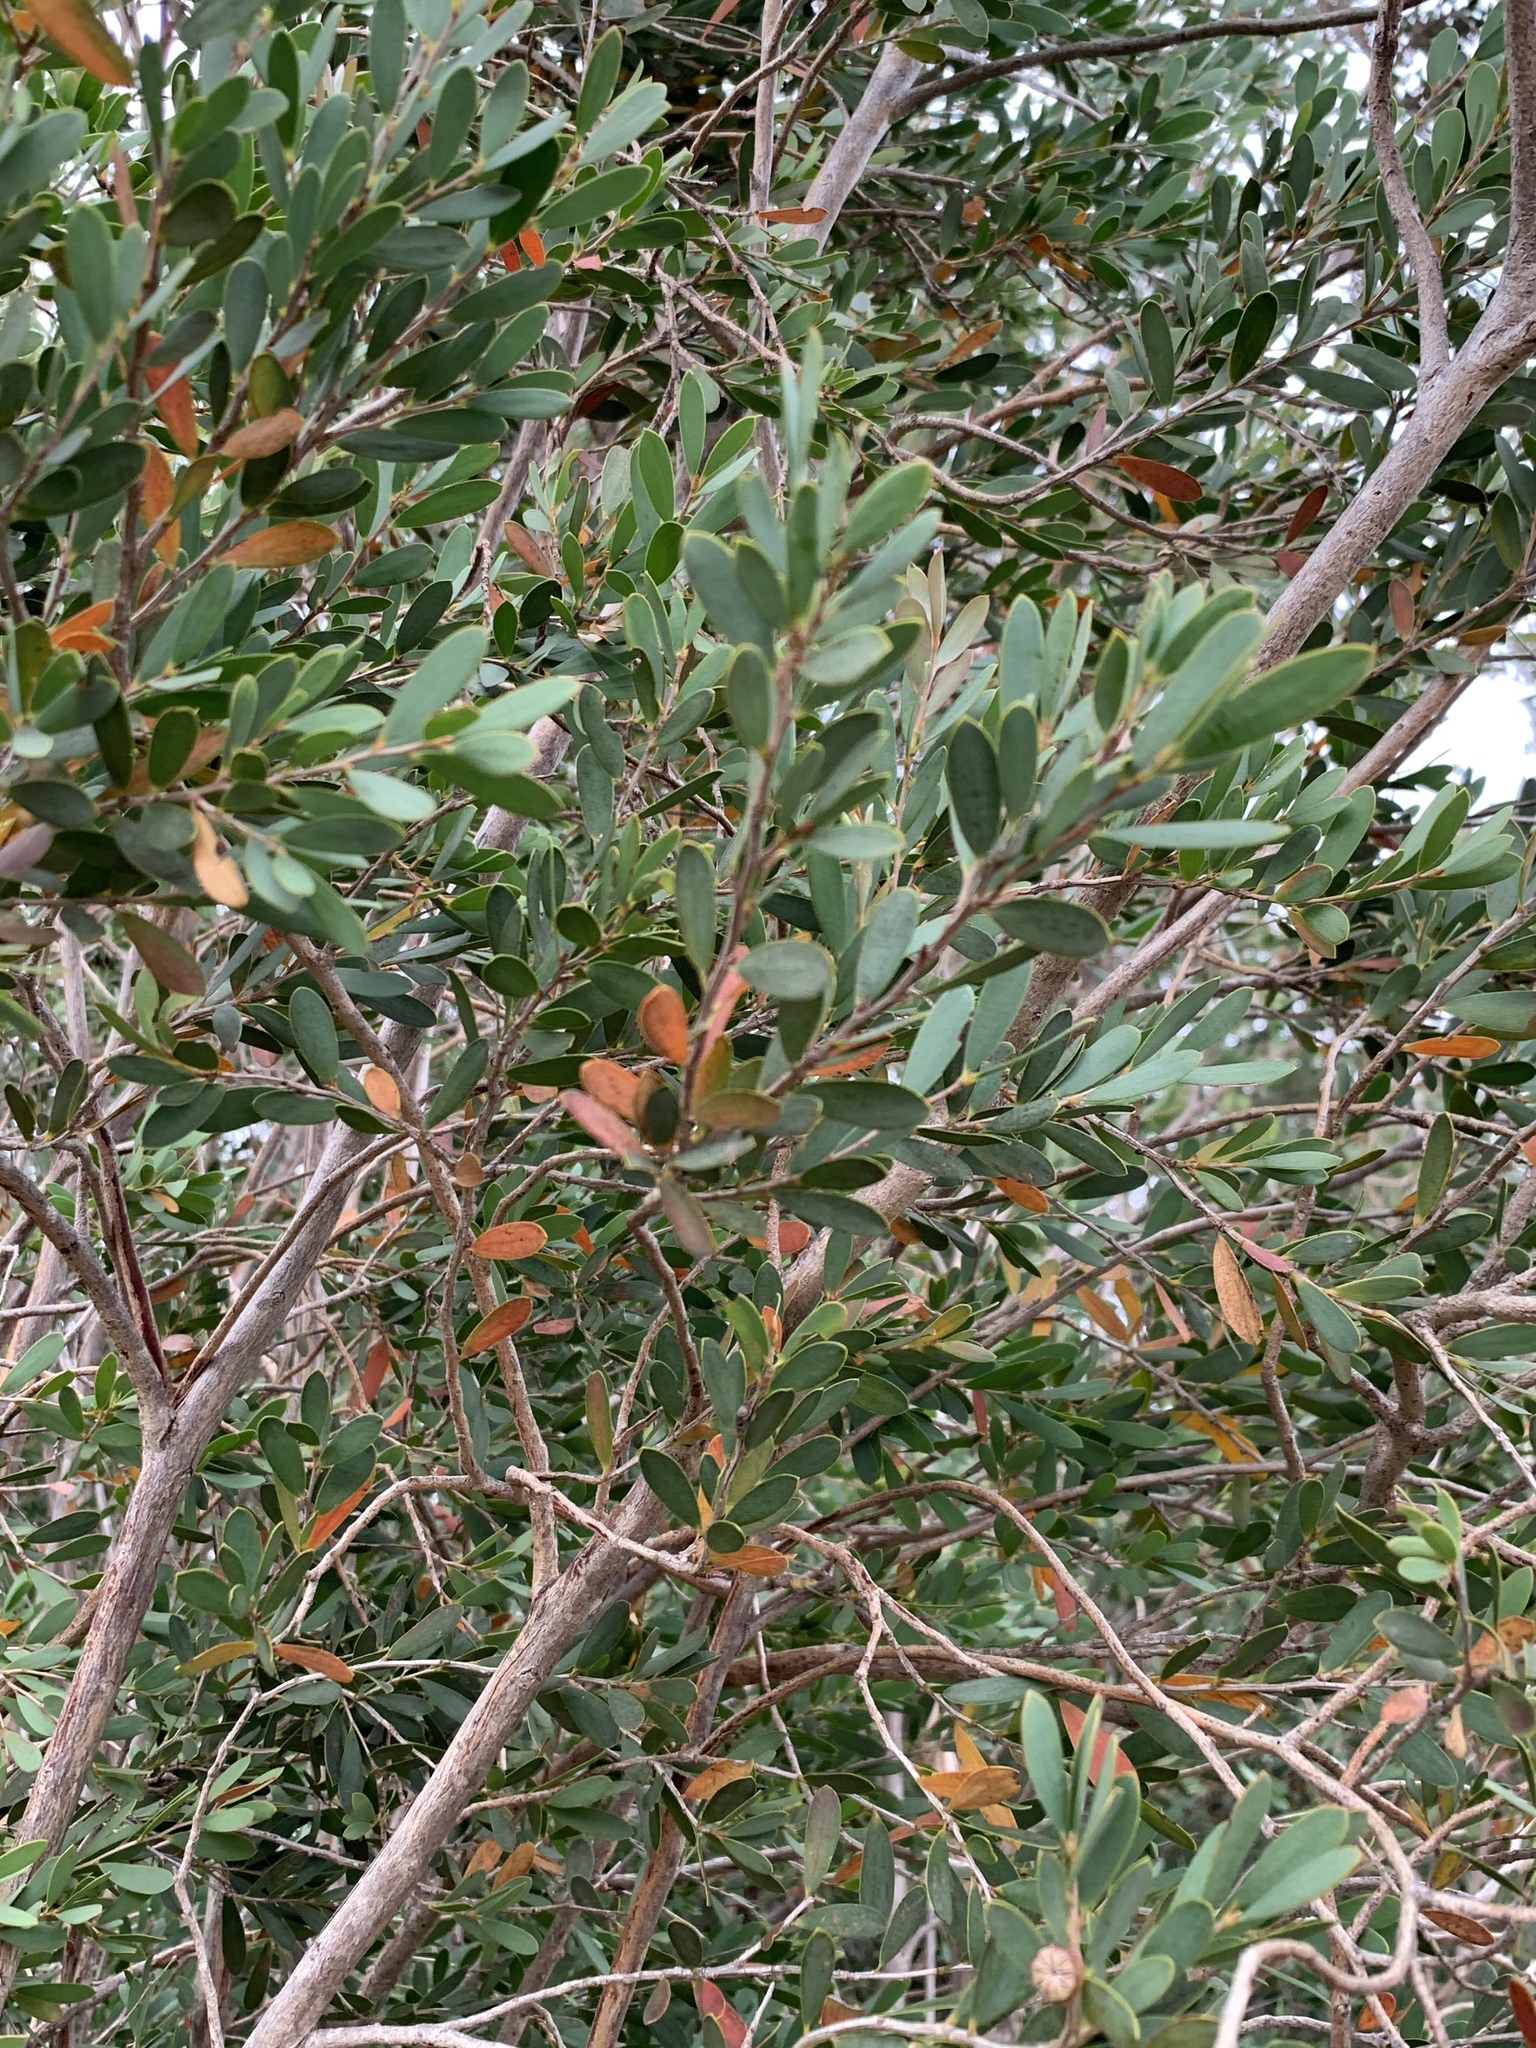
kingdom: Plantae
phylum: Tracheophyta
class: Magnoliopsida
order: Myrtales
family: Myrtaceae
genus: Leptospermum
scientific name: Leptospermum laevigatum
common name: Australian teatree
